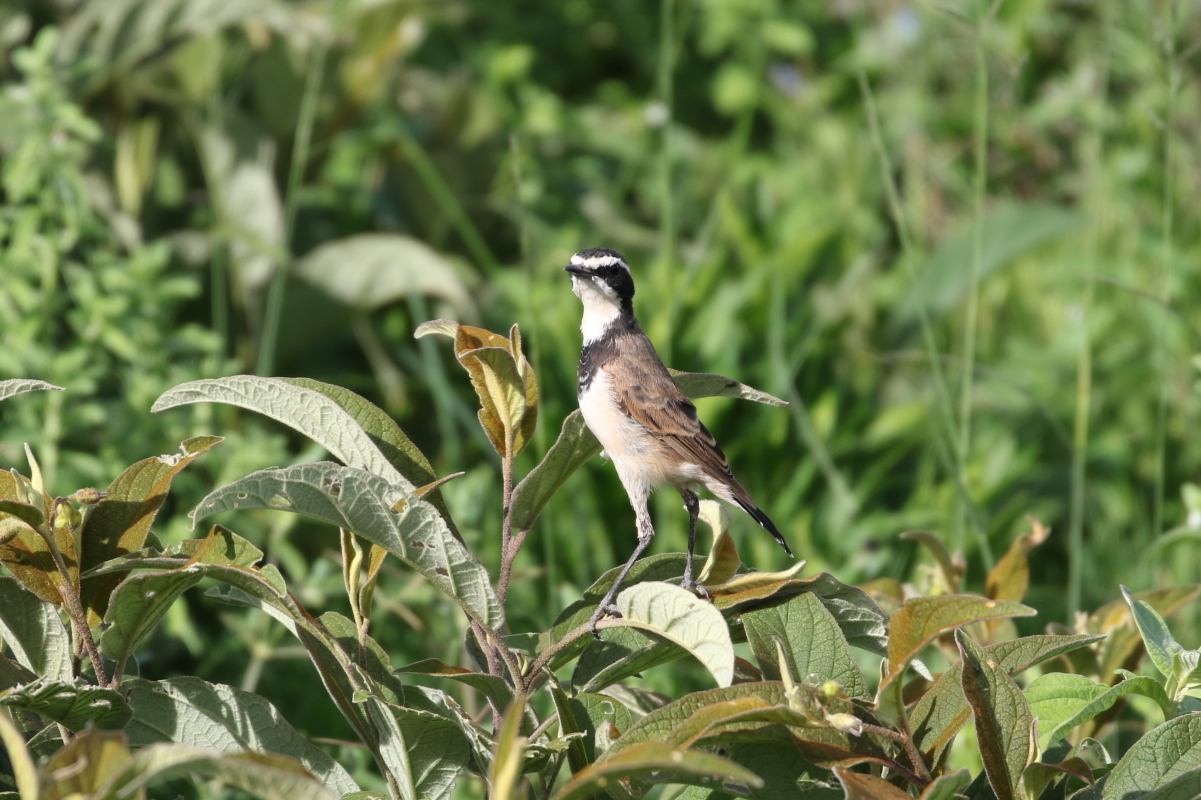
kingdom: Animalia
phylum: Chordata
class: Aves
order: Passeriformes
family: Muscicapidae
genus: Oenanthe
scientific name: Oenanthe pileata
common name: Capped wheatear
